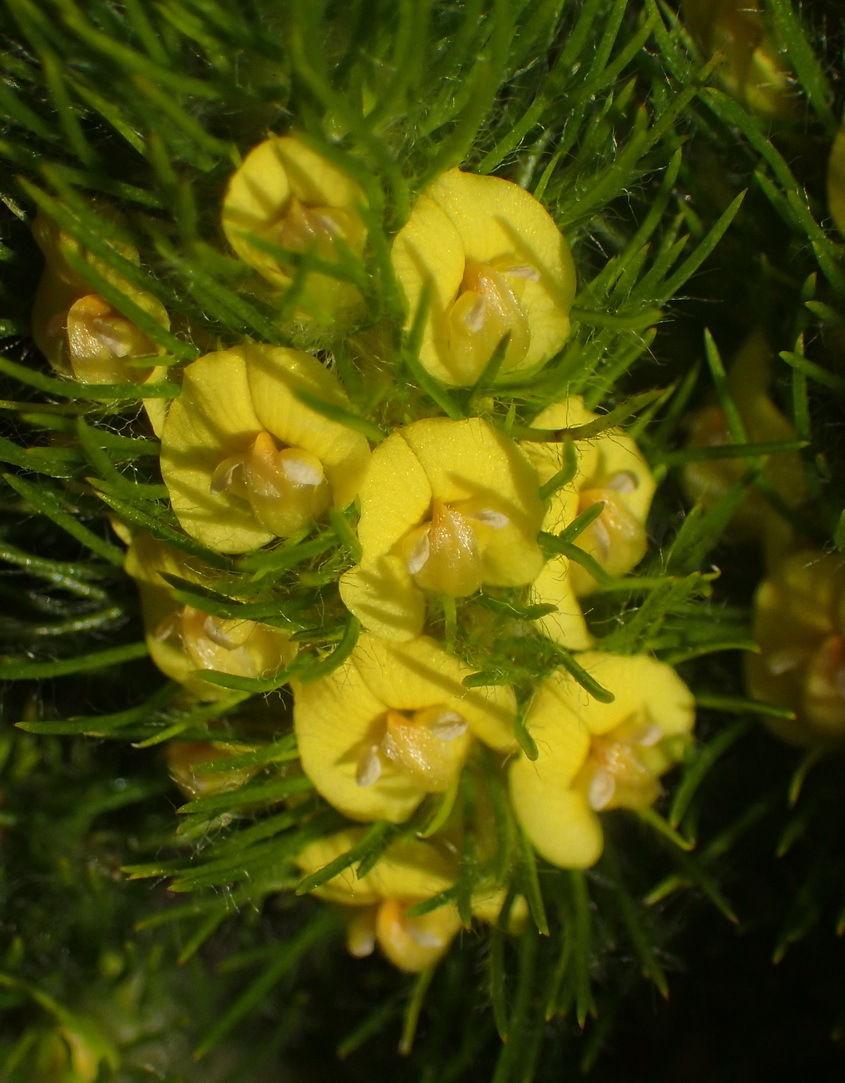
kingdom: Plantae
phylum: Tracheophyta
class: Magnoliopsida
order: Fabales
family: Fabaceae
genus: Aspalathus
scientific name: Aspalathus alopecurus
